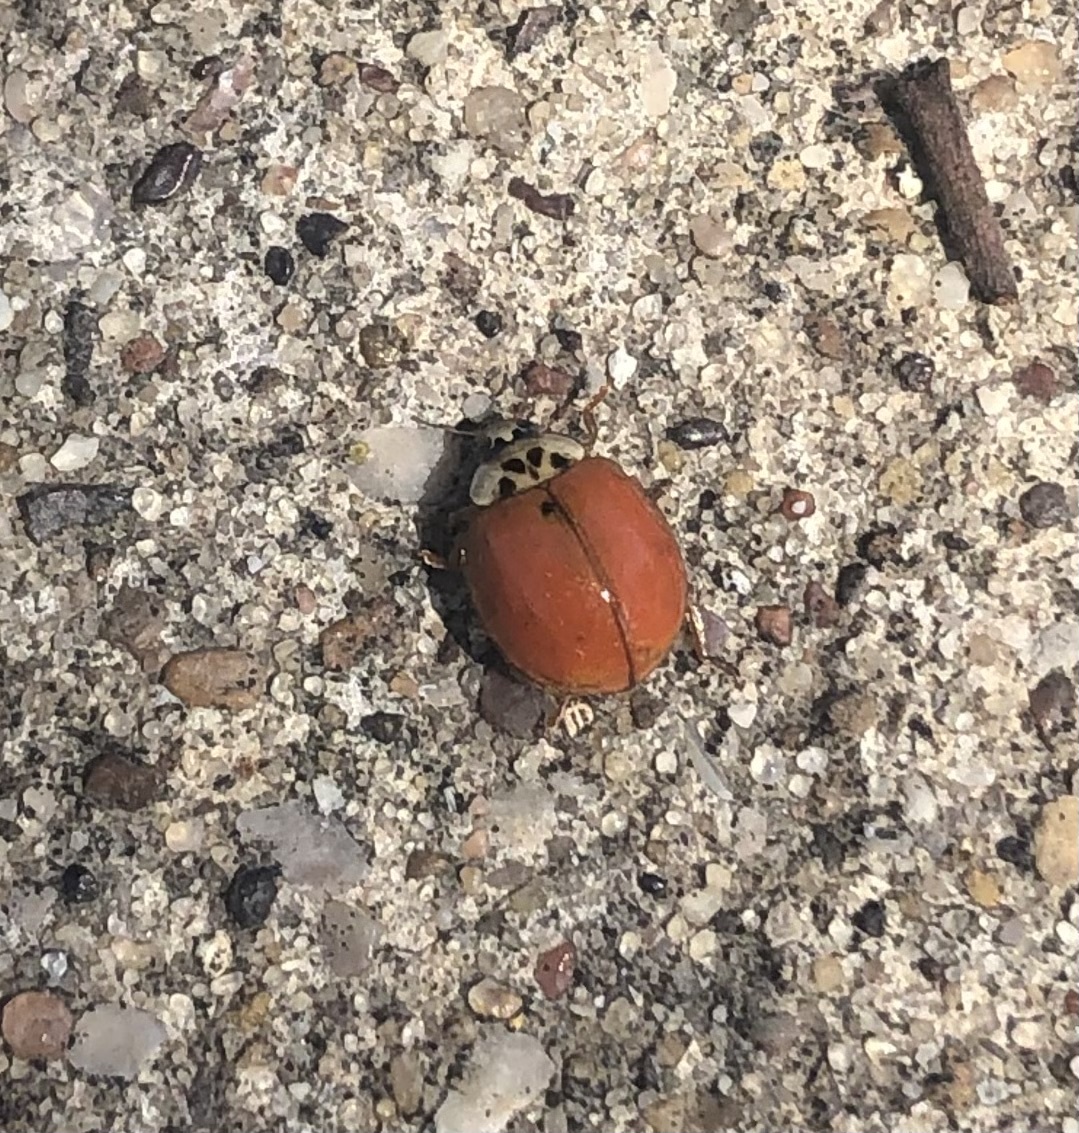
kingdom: Animalia
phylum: Arthropoda
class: Insecta
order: Coleoptera
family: Coccinellidae
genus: Harmonia
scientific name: Harmonia axyridis
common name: Harlequin ladybird
